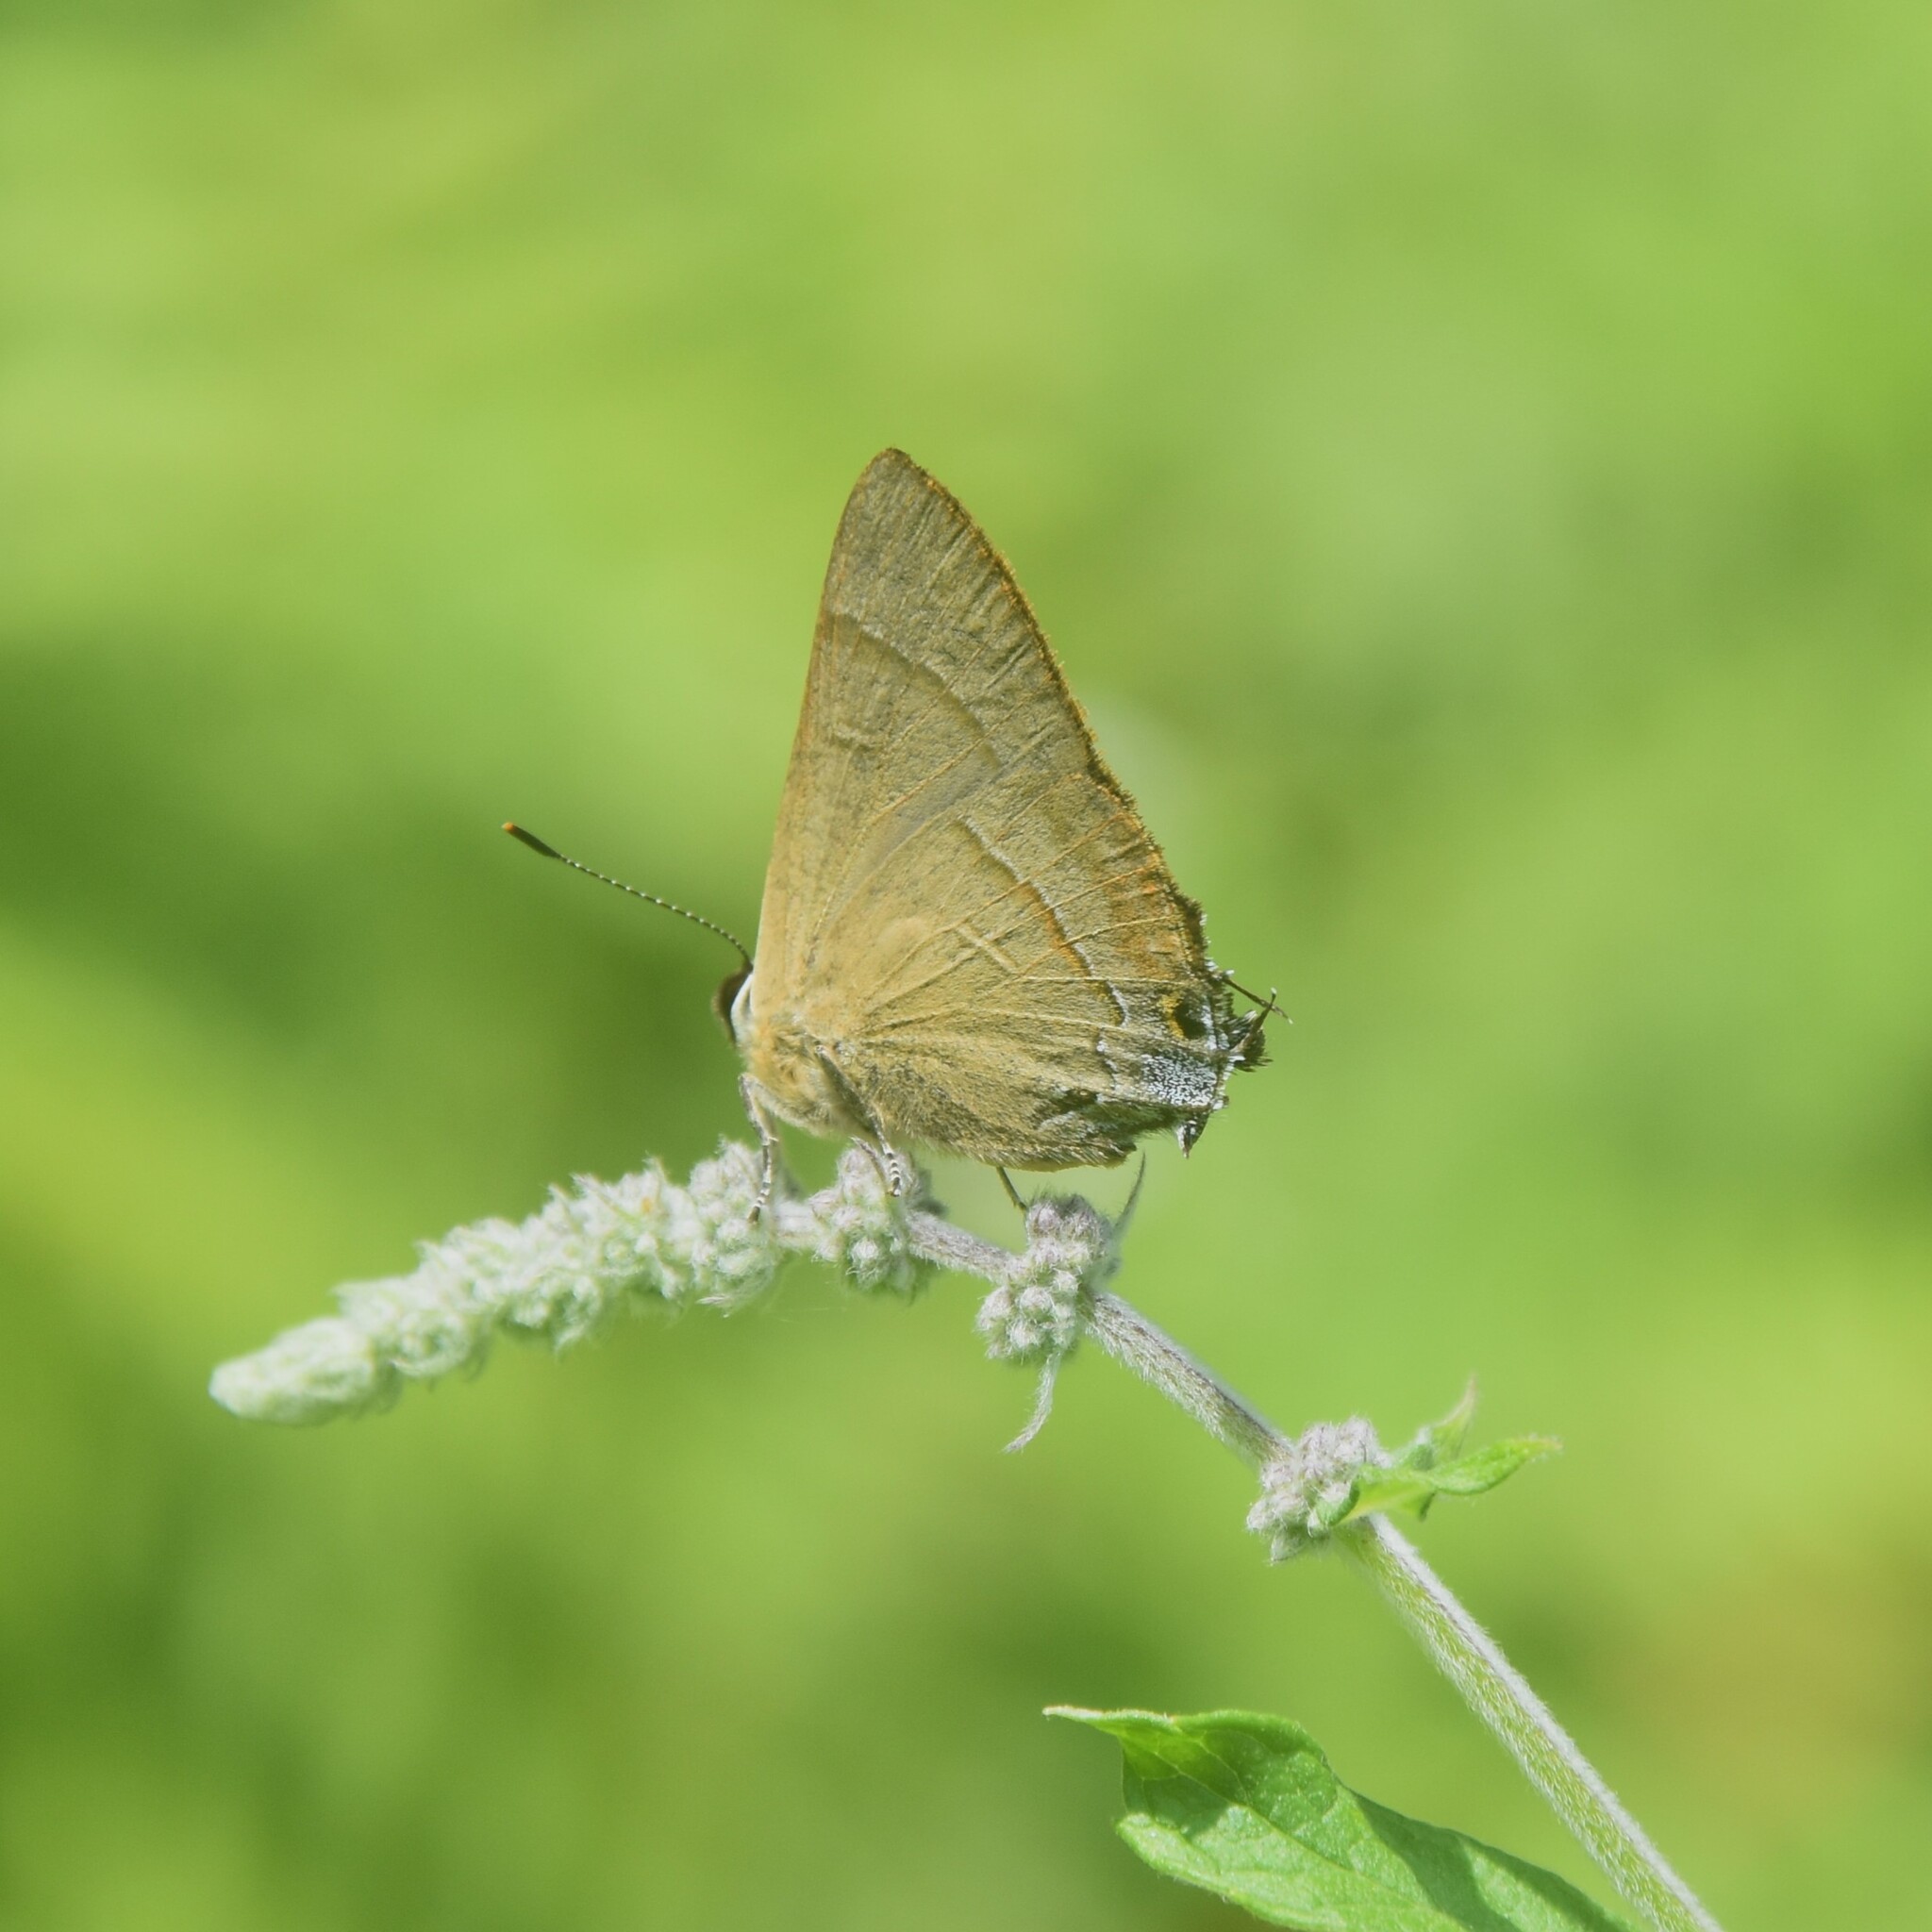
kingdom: Animalia
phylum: Arthropoda
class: Insecta
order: Lepidoptera
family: Lycaenidae
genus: Rapala
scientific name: Rapala nissa
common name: Common flash
